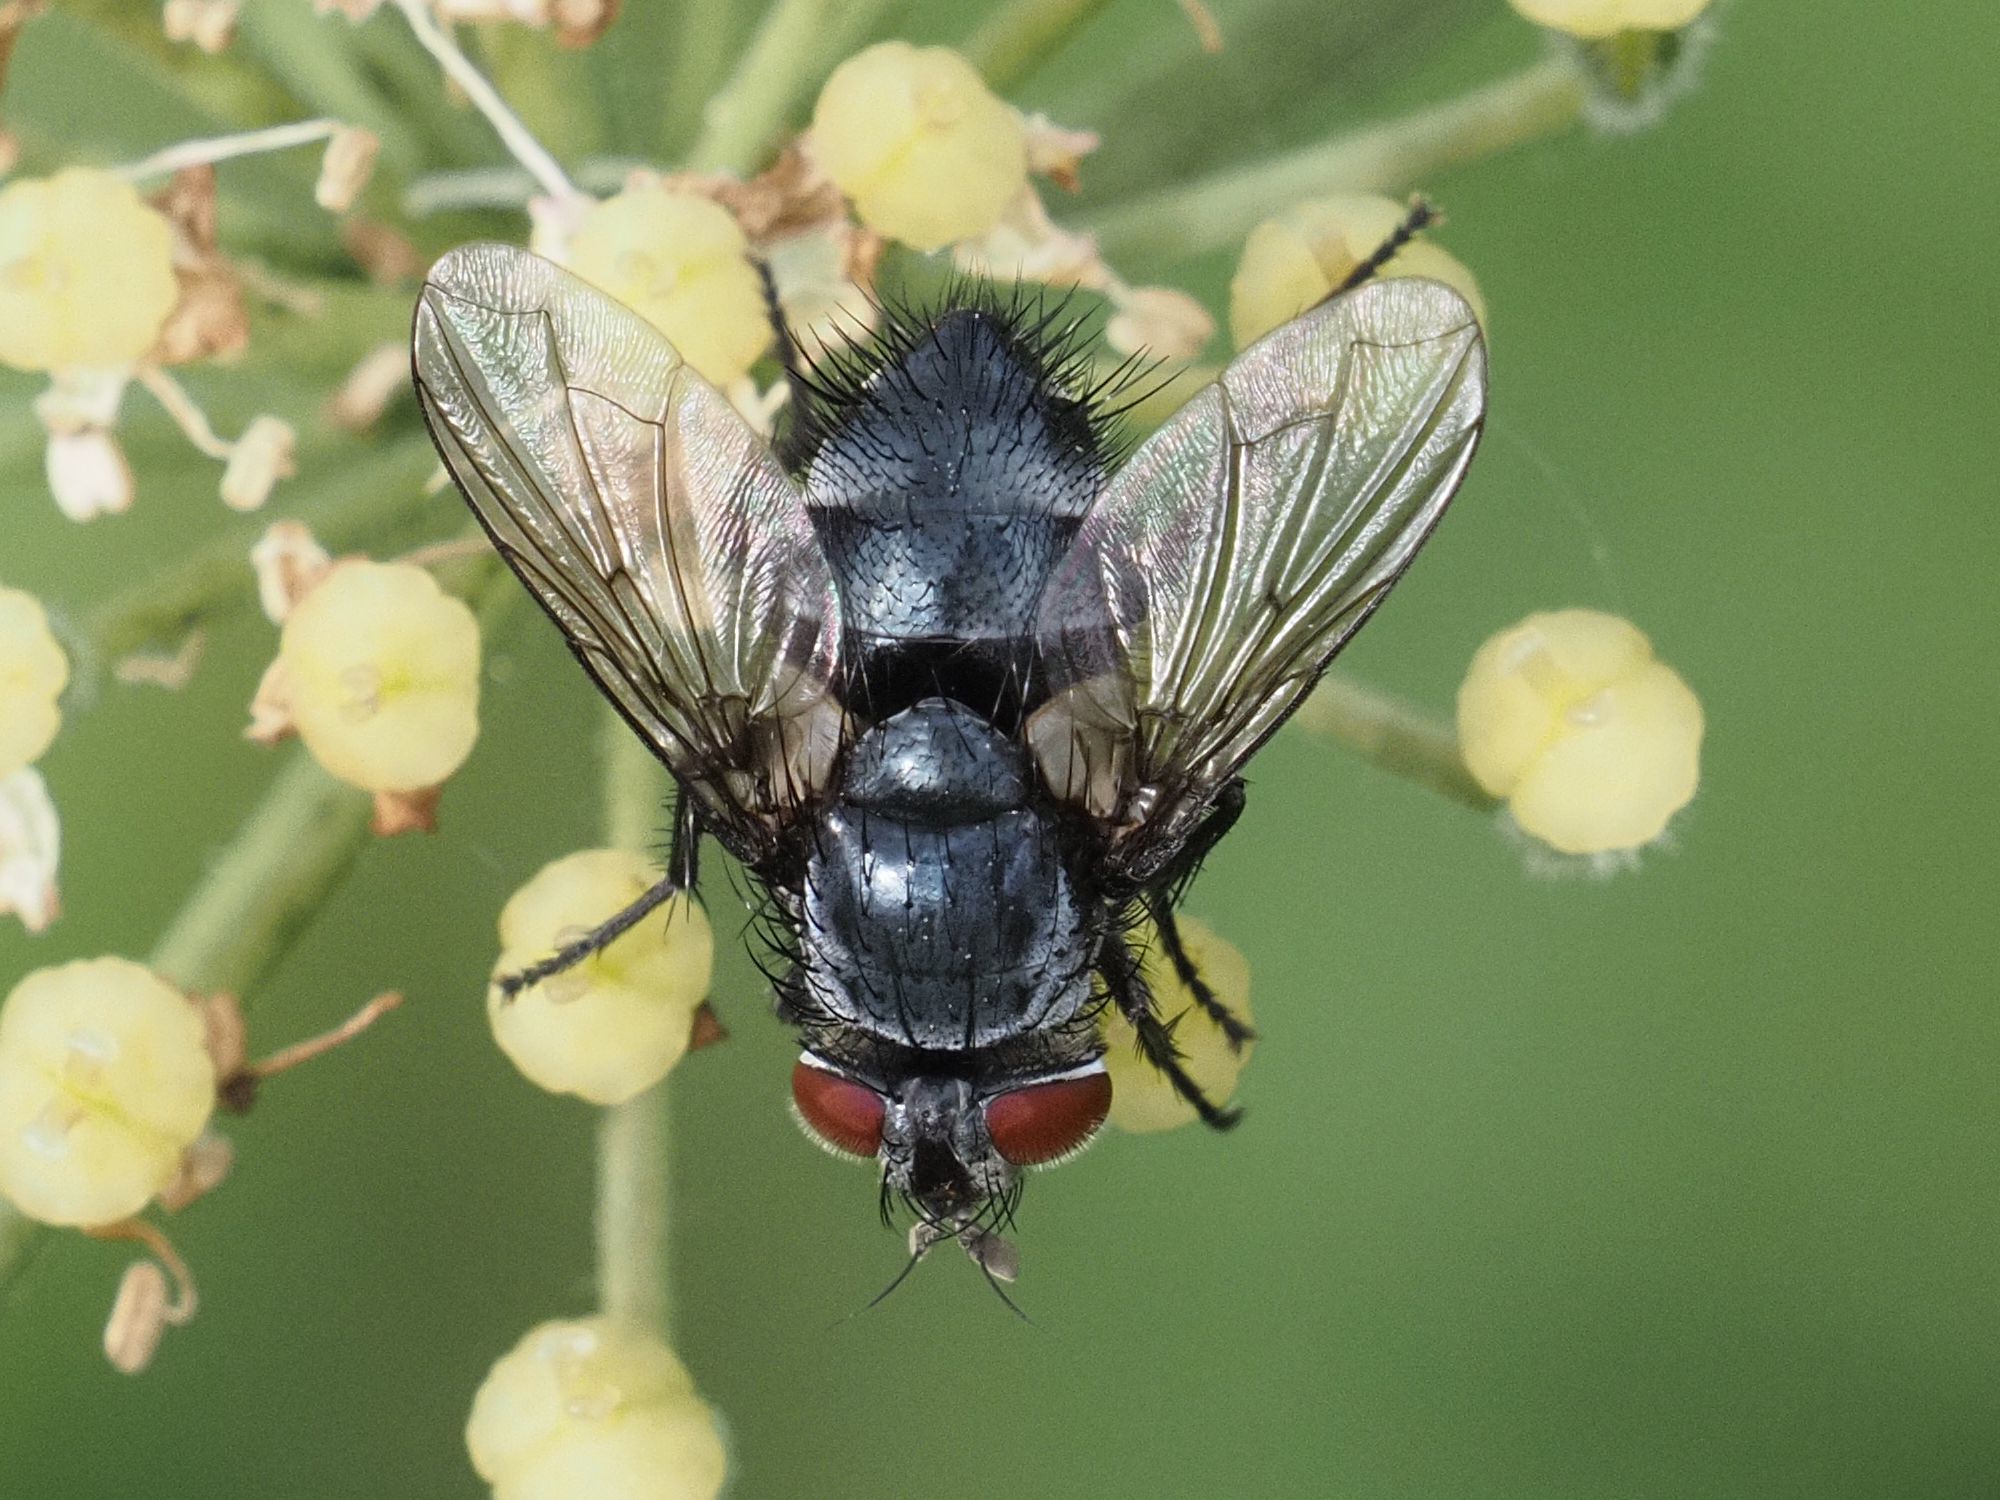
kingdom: Animalia
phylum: Arthropoda
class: Insecta
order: Diptera
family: Tachinidae
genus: Epicampocera
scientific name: Epicampocera succincta
